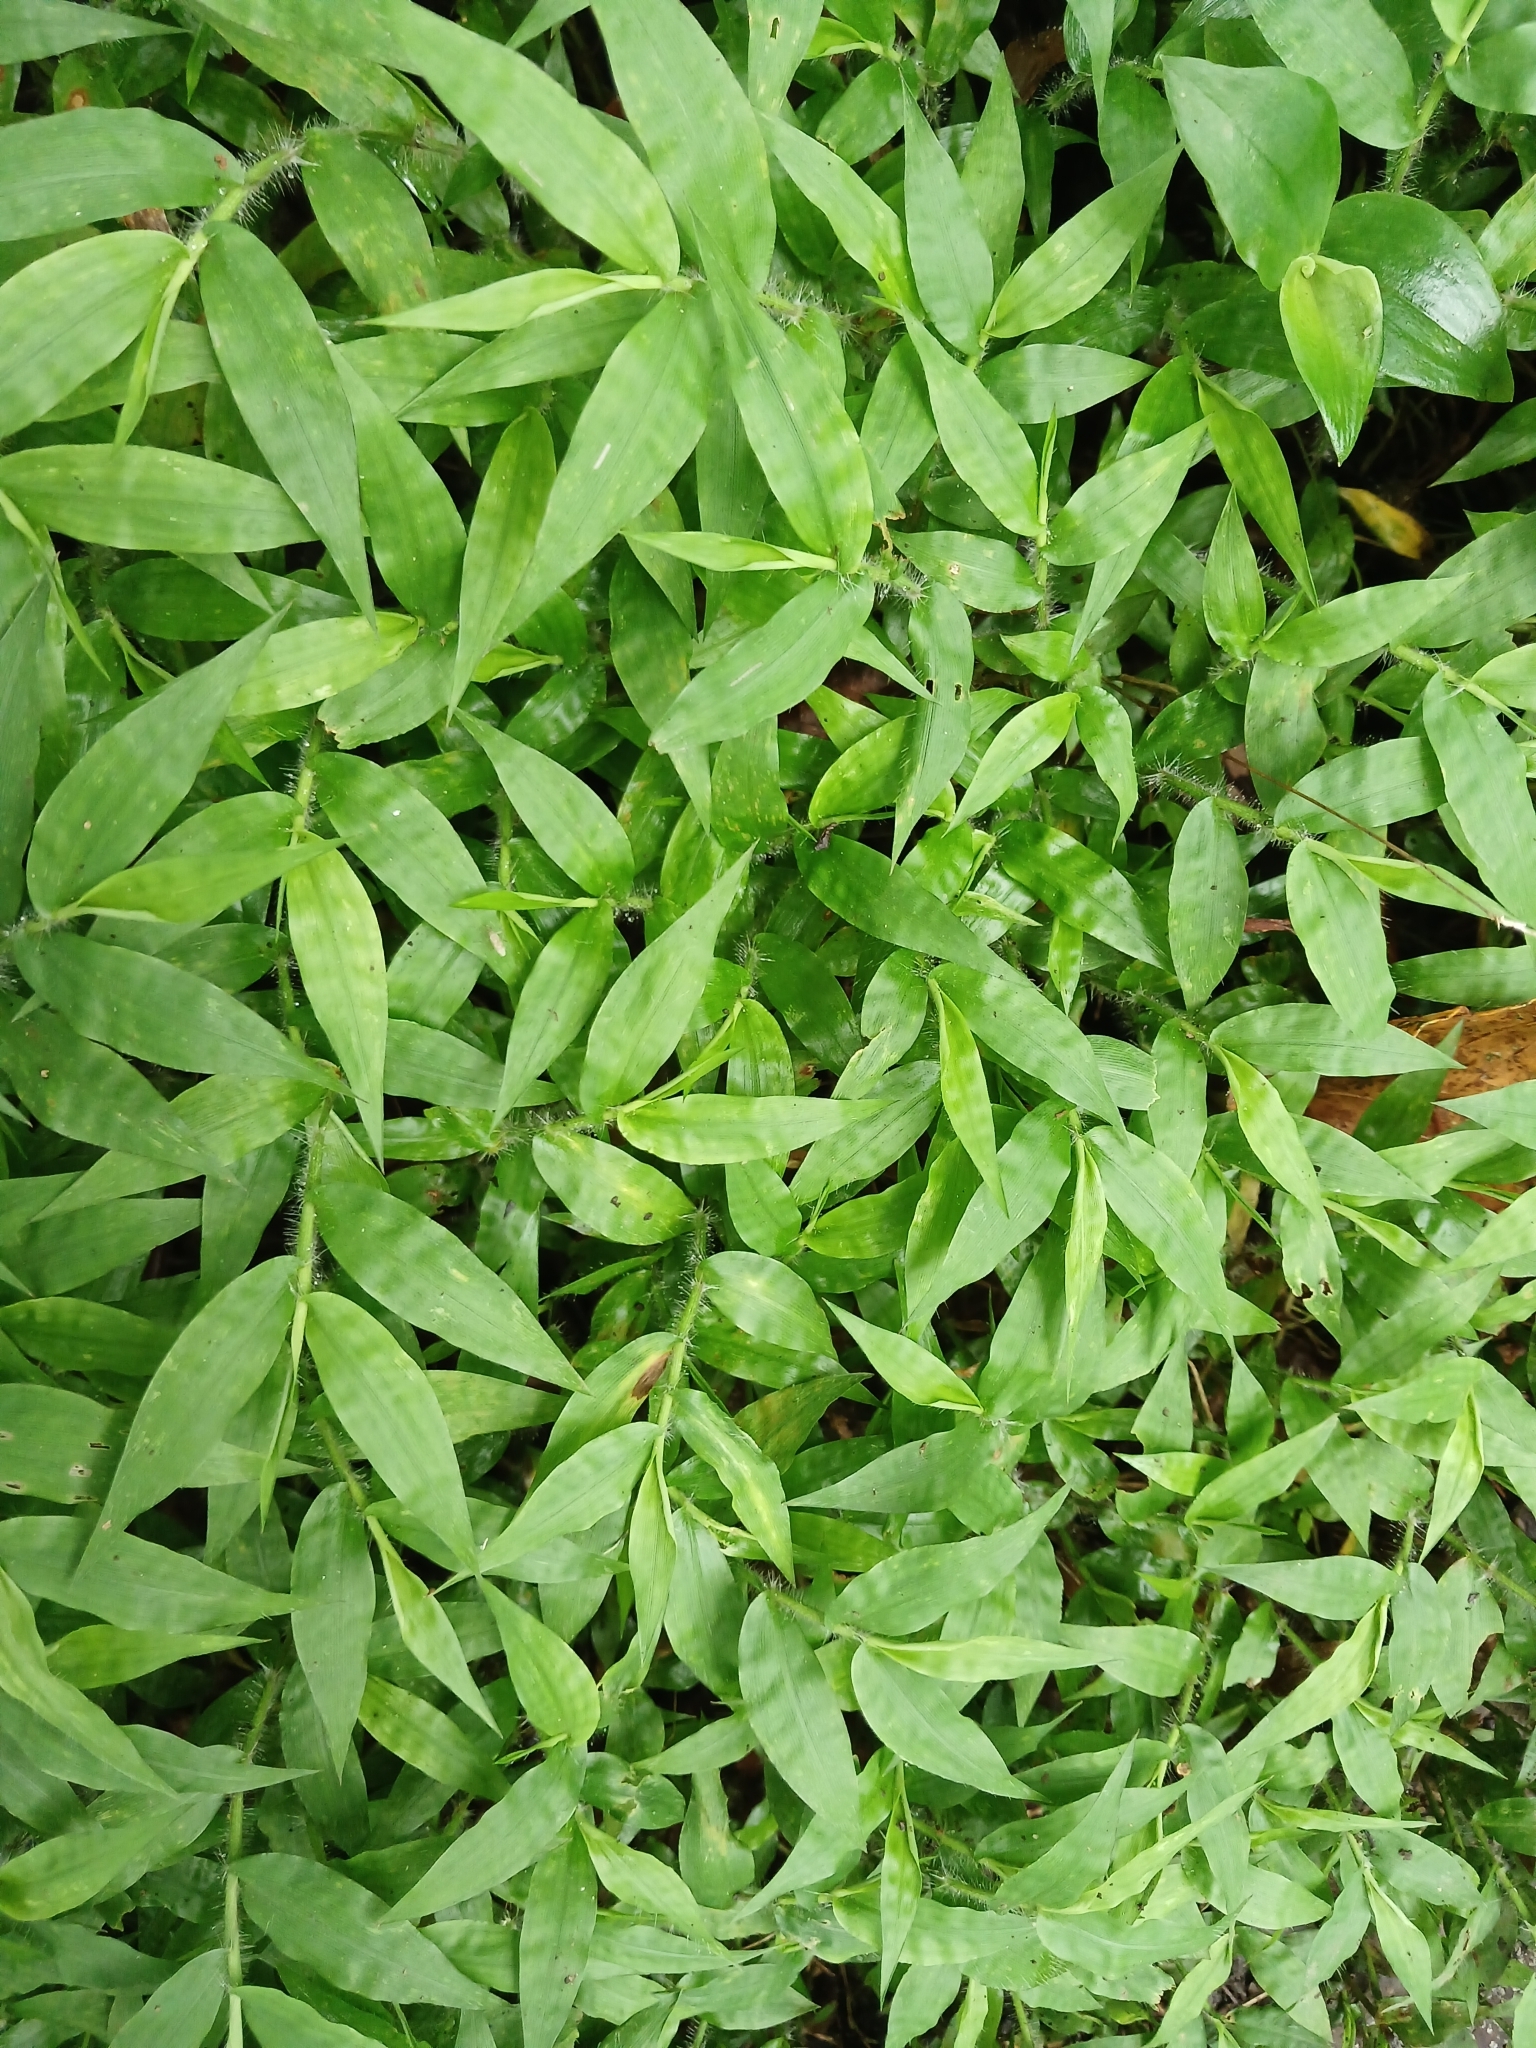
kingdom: Plantae
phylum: Tracheophyta
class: Liliopsida
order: Poales
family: Poaceae
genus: Oplismenus
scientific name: Oplismenus hirtellus
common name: Basketgrass
